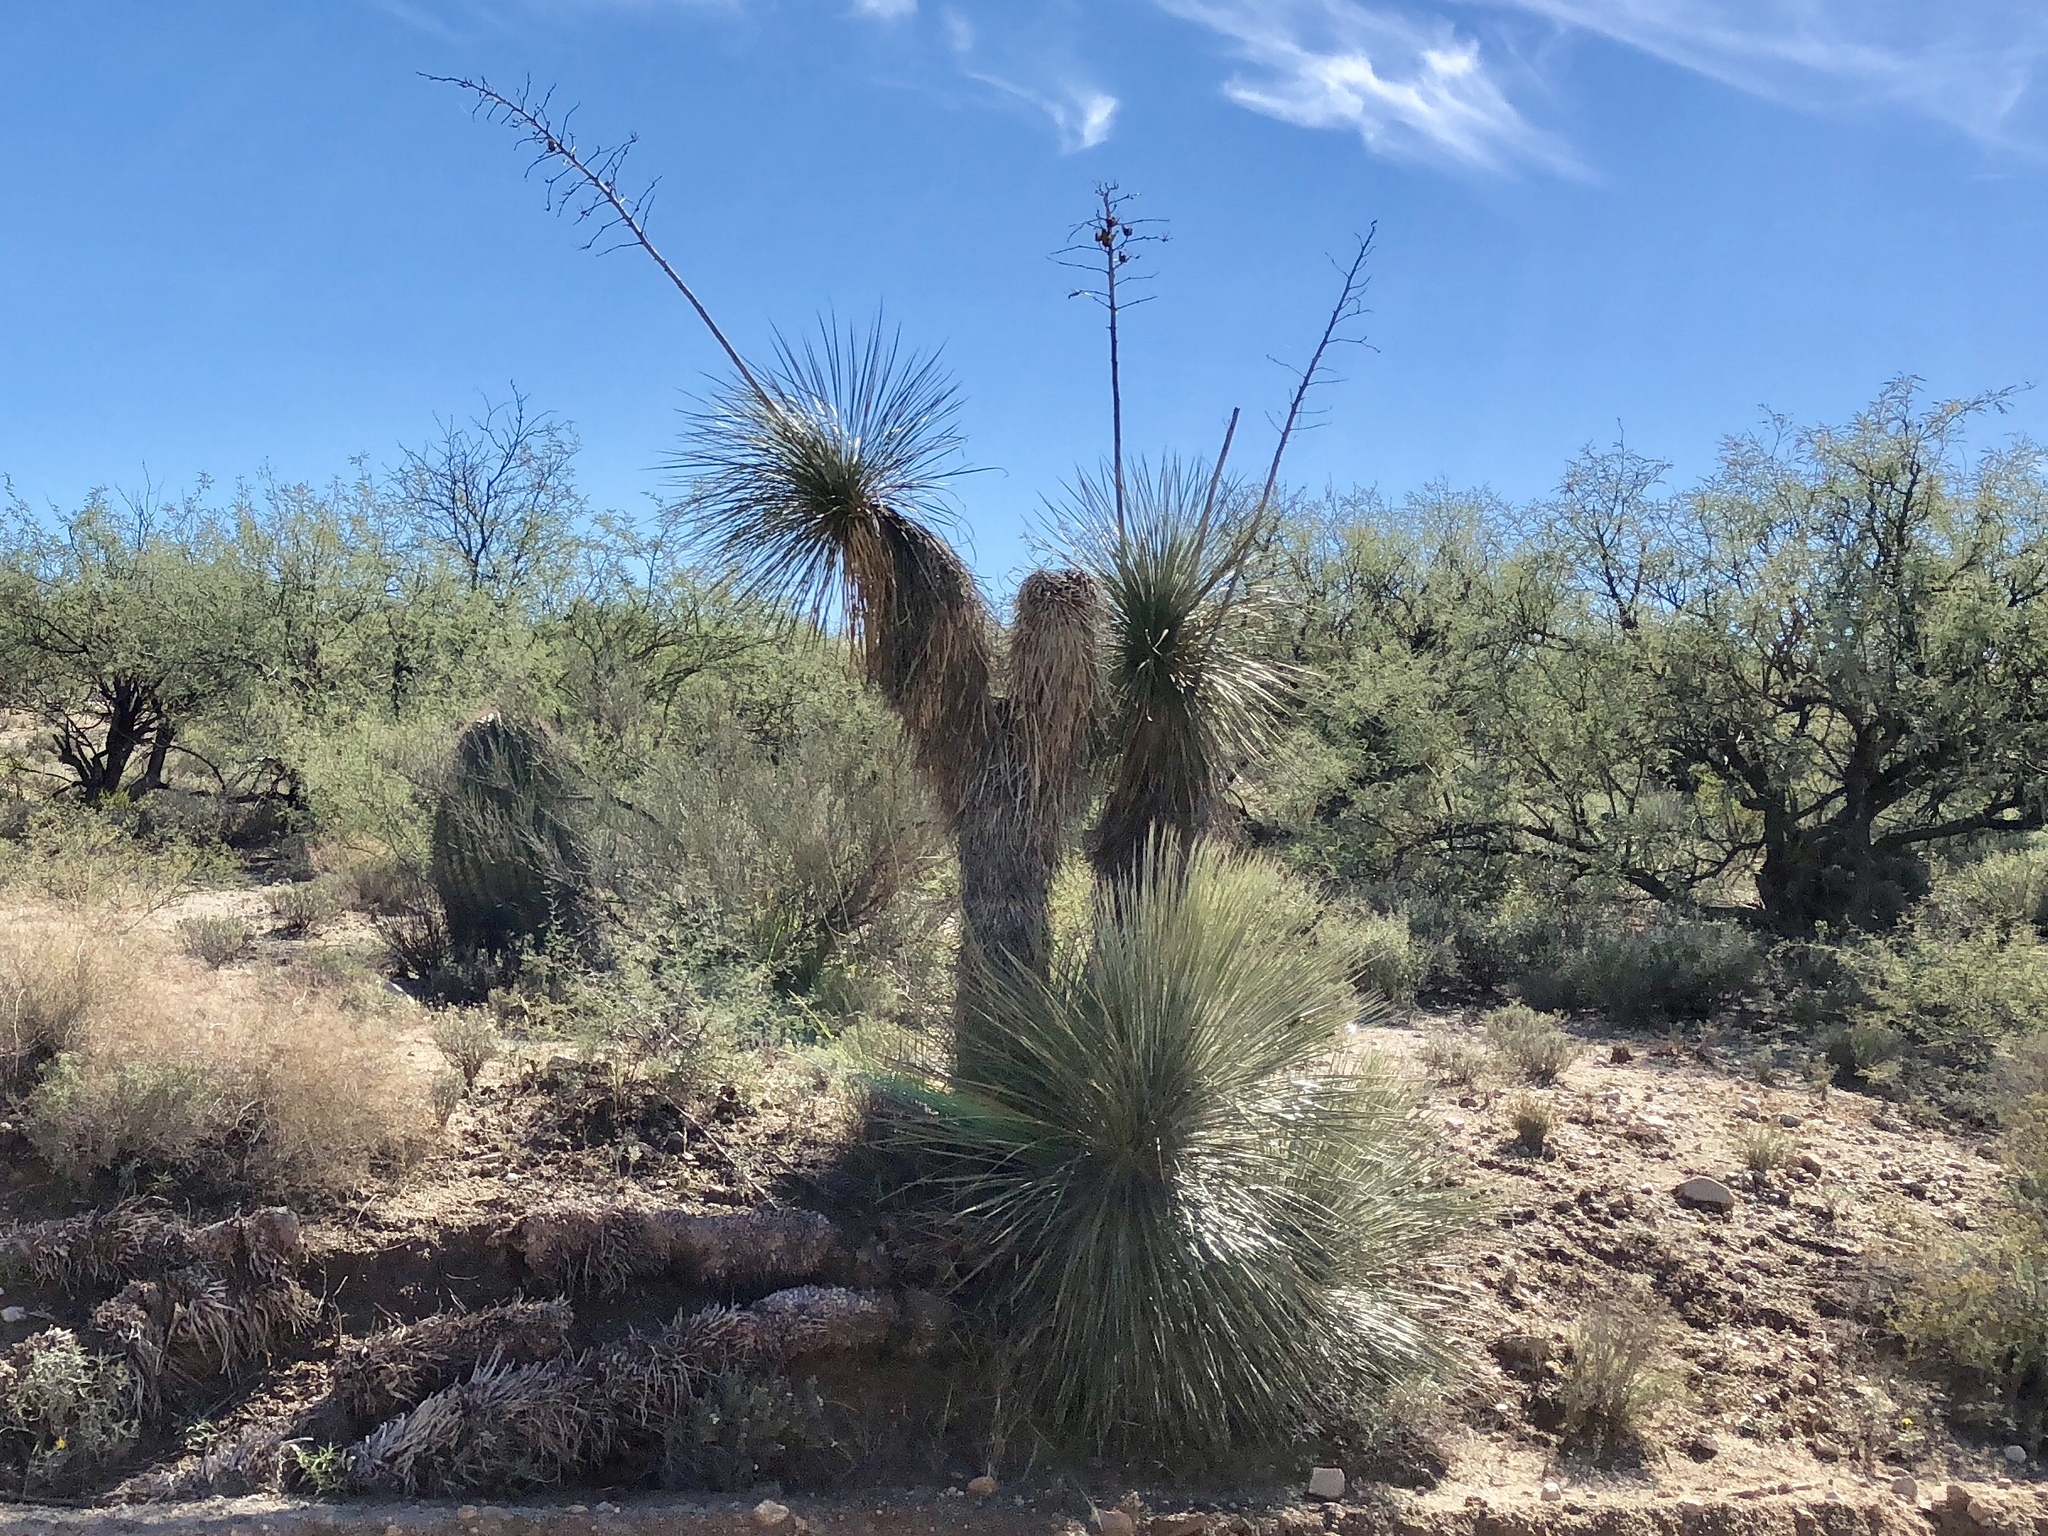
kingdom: Plantae
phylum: Tracheophyta
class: Liliopsida
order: Asparagales
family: Asparagaceae
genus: Yucca
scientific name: Yucca elata
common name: Palmella
